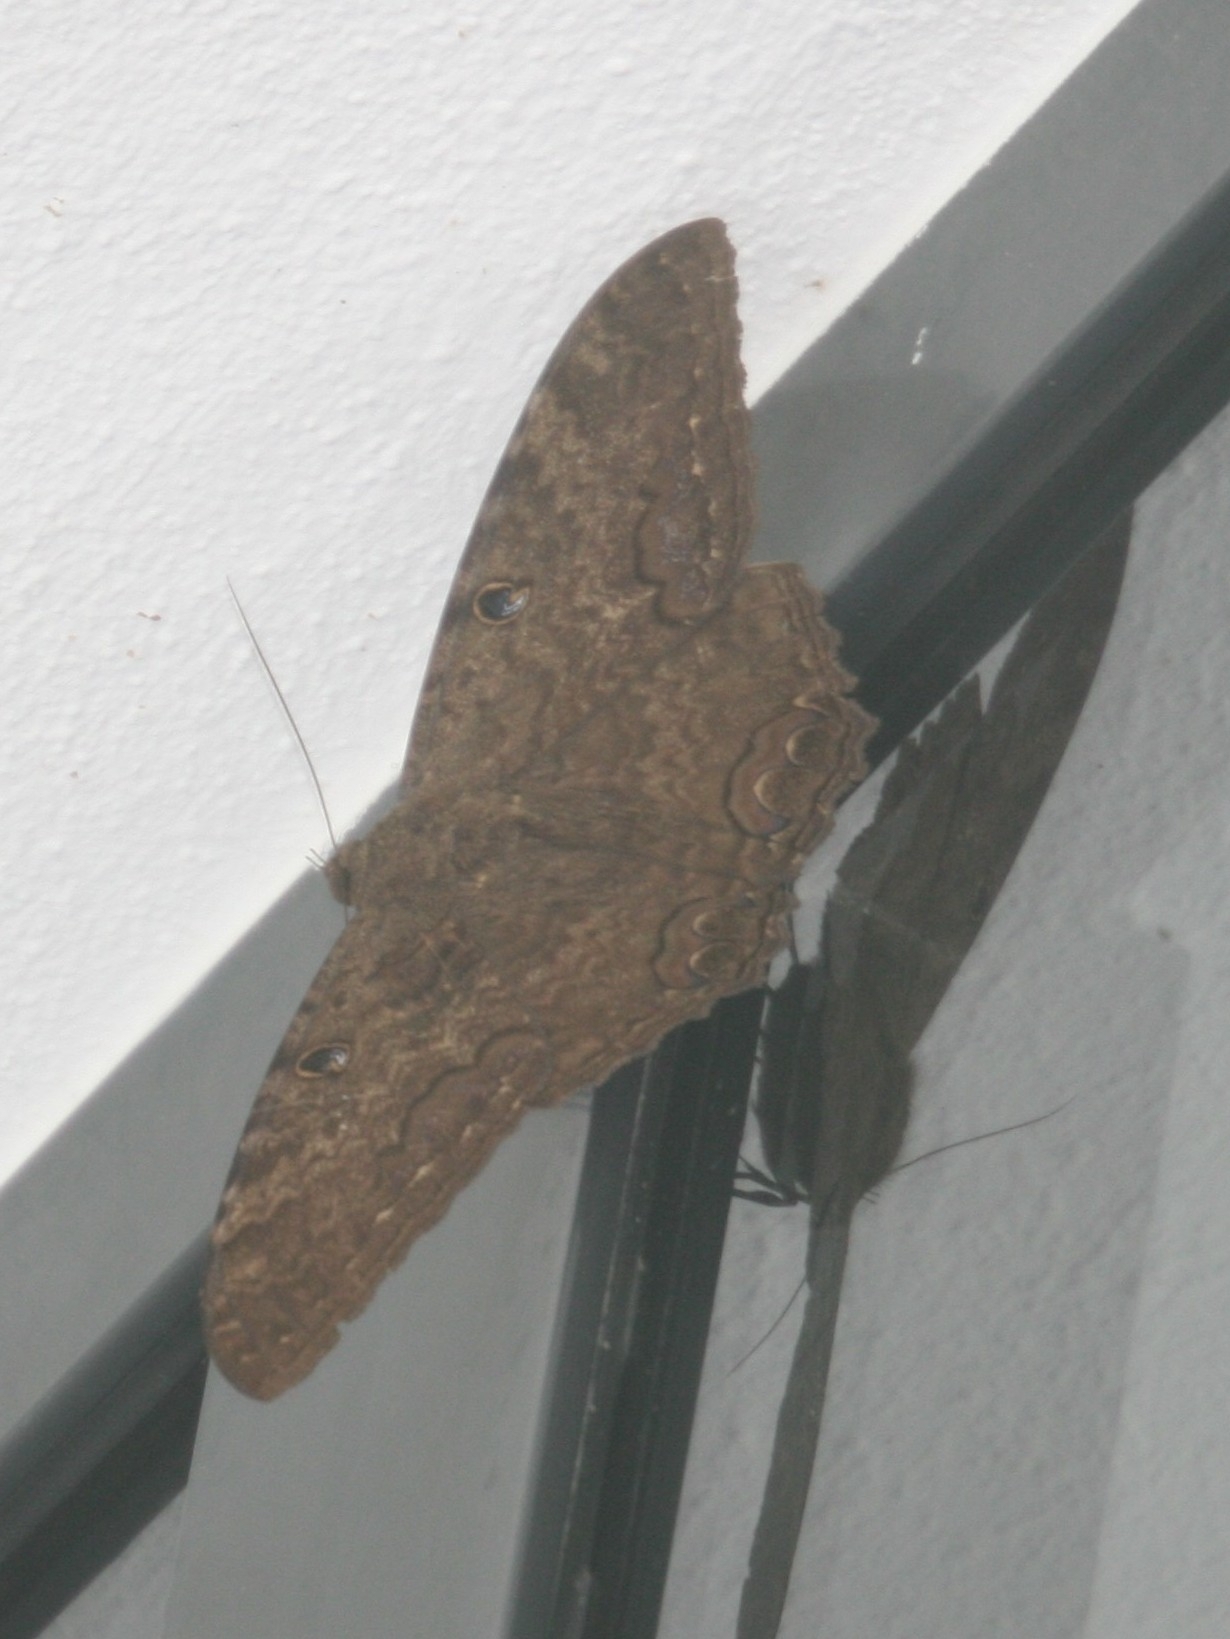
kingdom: Animalia
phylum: Arthropoda
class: Insecta
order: Lepidoptera
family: Erebidae
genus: Ascalapha
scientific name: Ascalapha odorata
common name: Black witch
